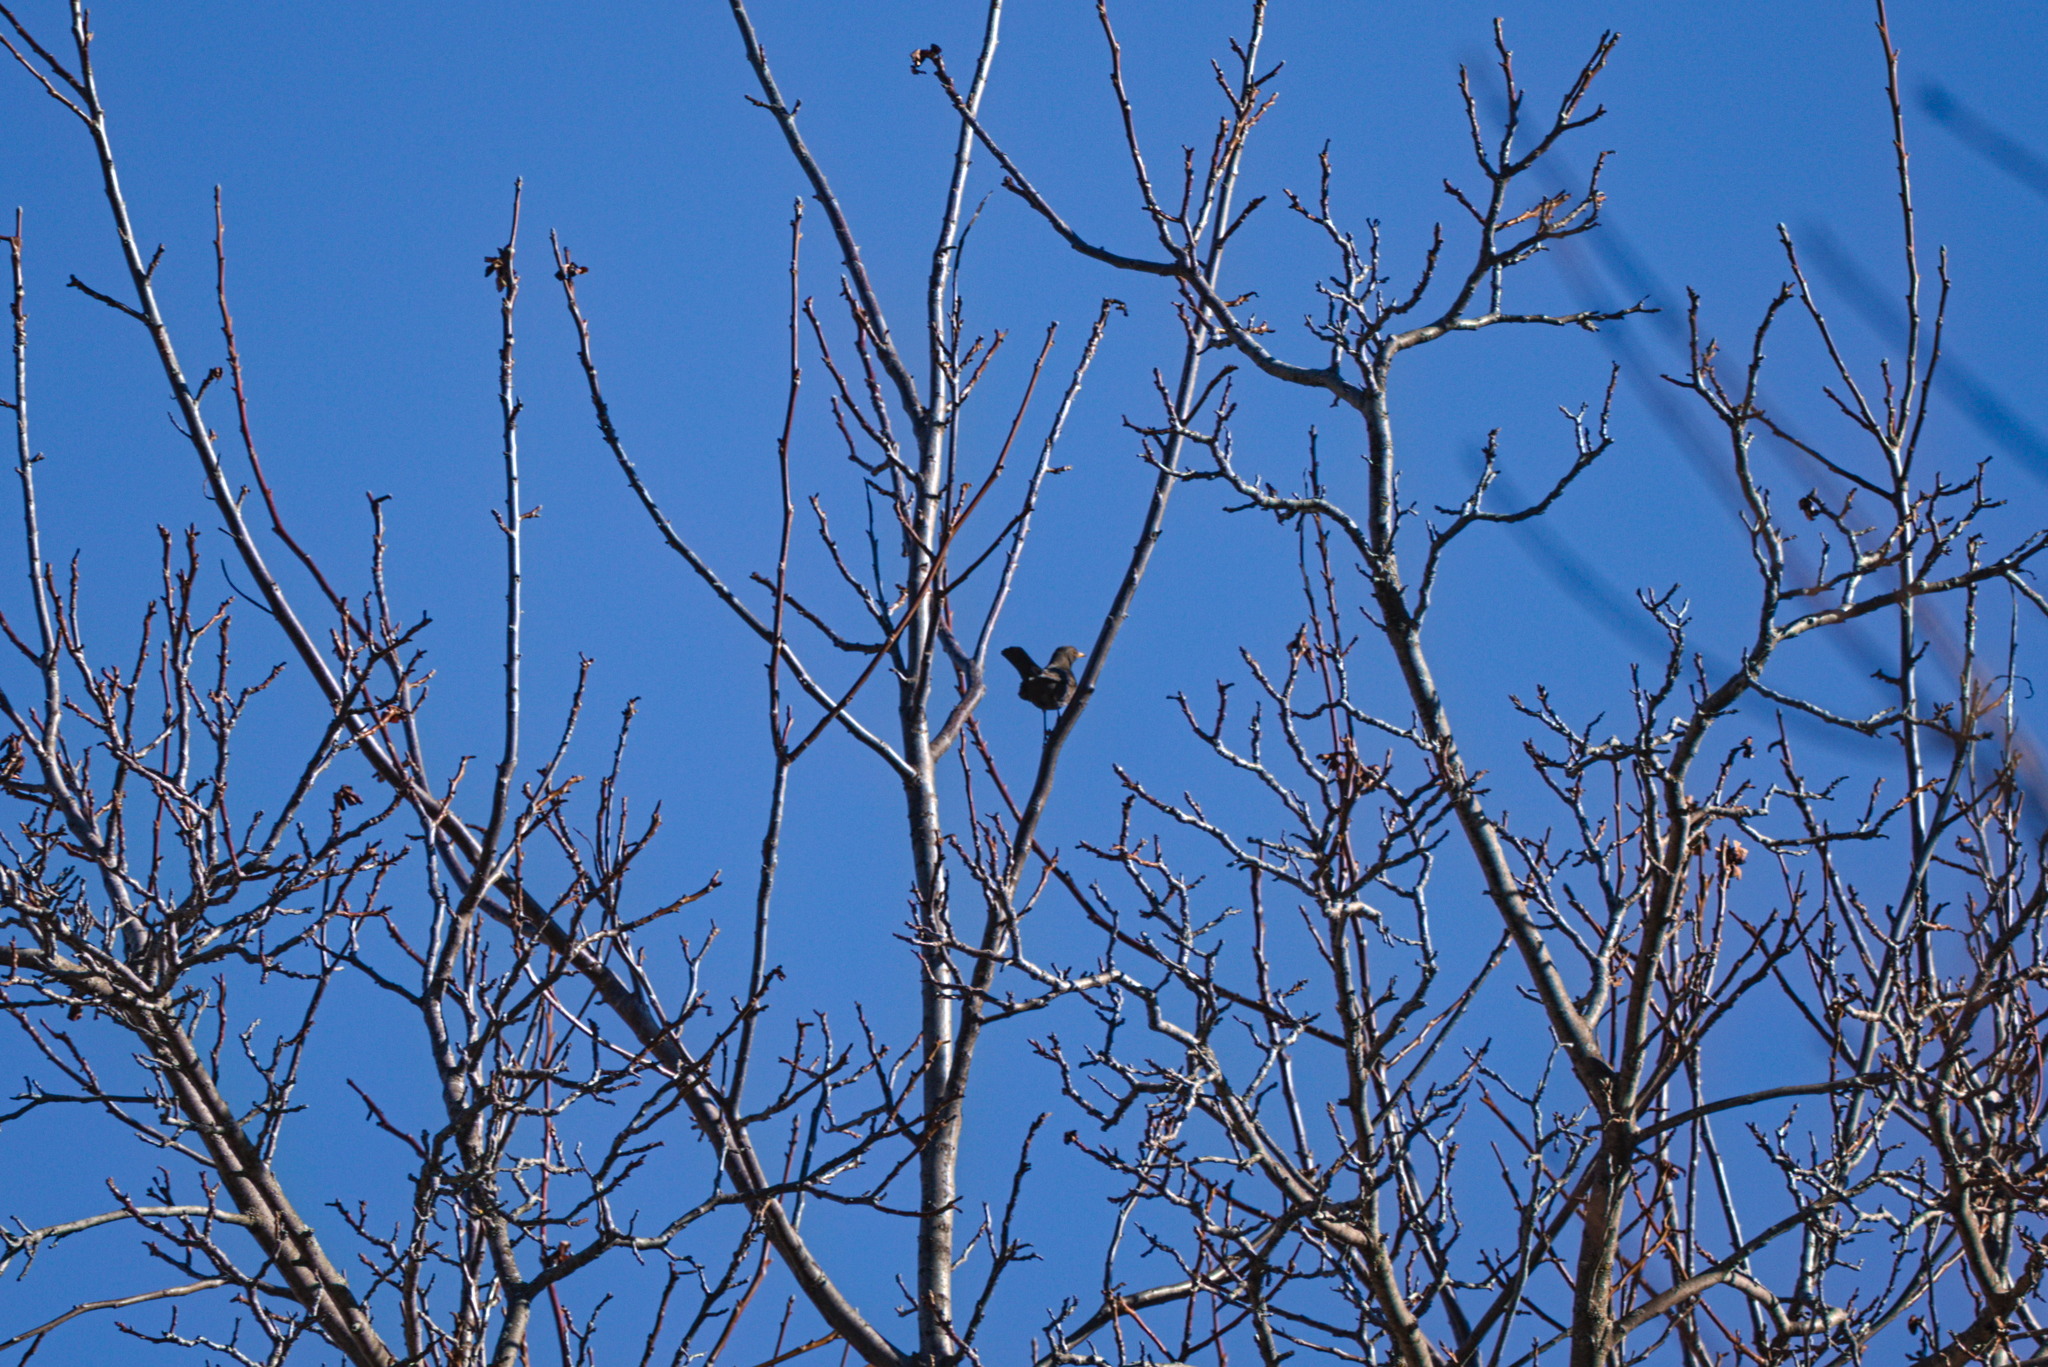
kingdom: Animalia
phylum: Chordata
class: Aves
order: Passeriformes
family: Turdidae
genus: Turdus
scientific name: Turdus merula
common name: Common blackbird
